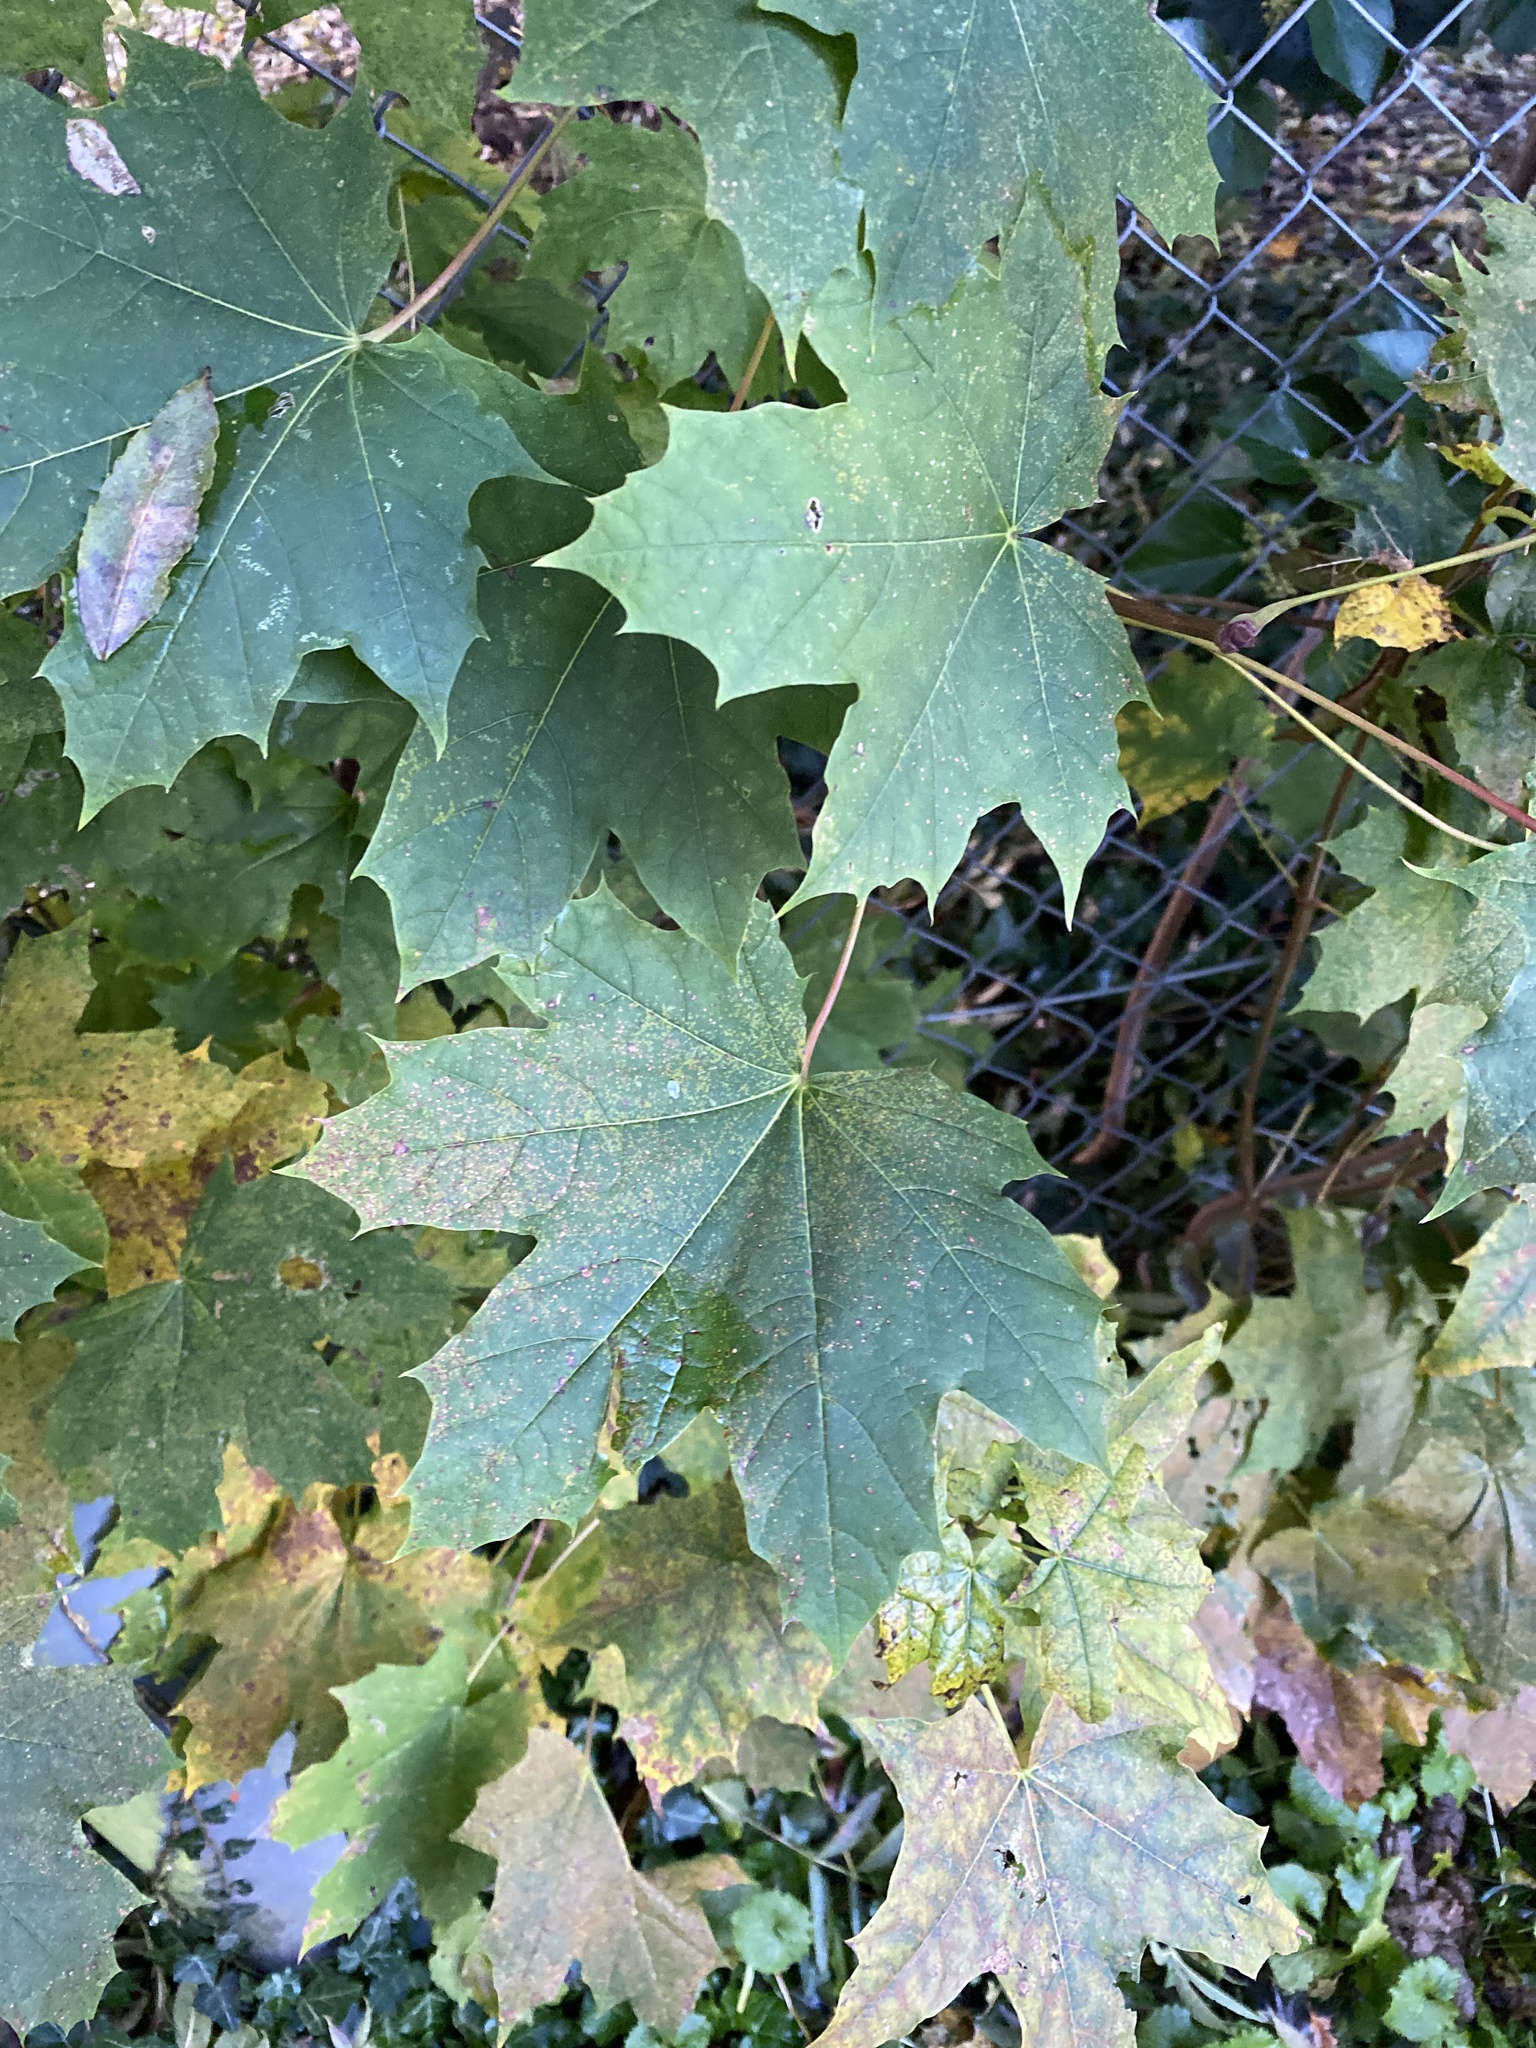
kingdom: Plantae
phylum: Tracheophyta
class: Magnoliopsida
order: Sapindales
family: Sapindaceae
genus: Acer
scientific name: Acer platanoides
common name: Norway maple
